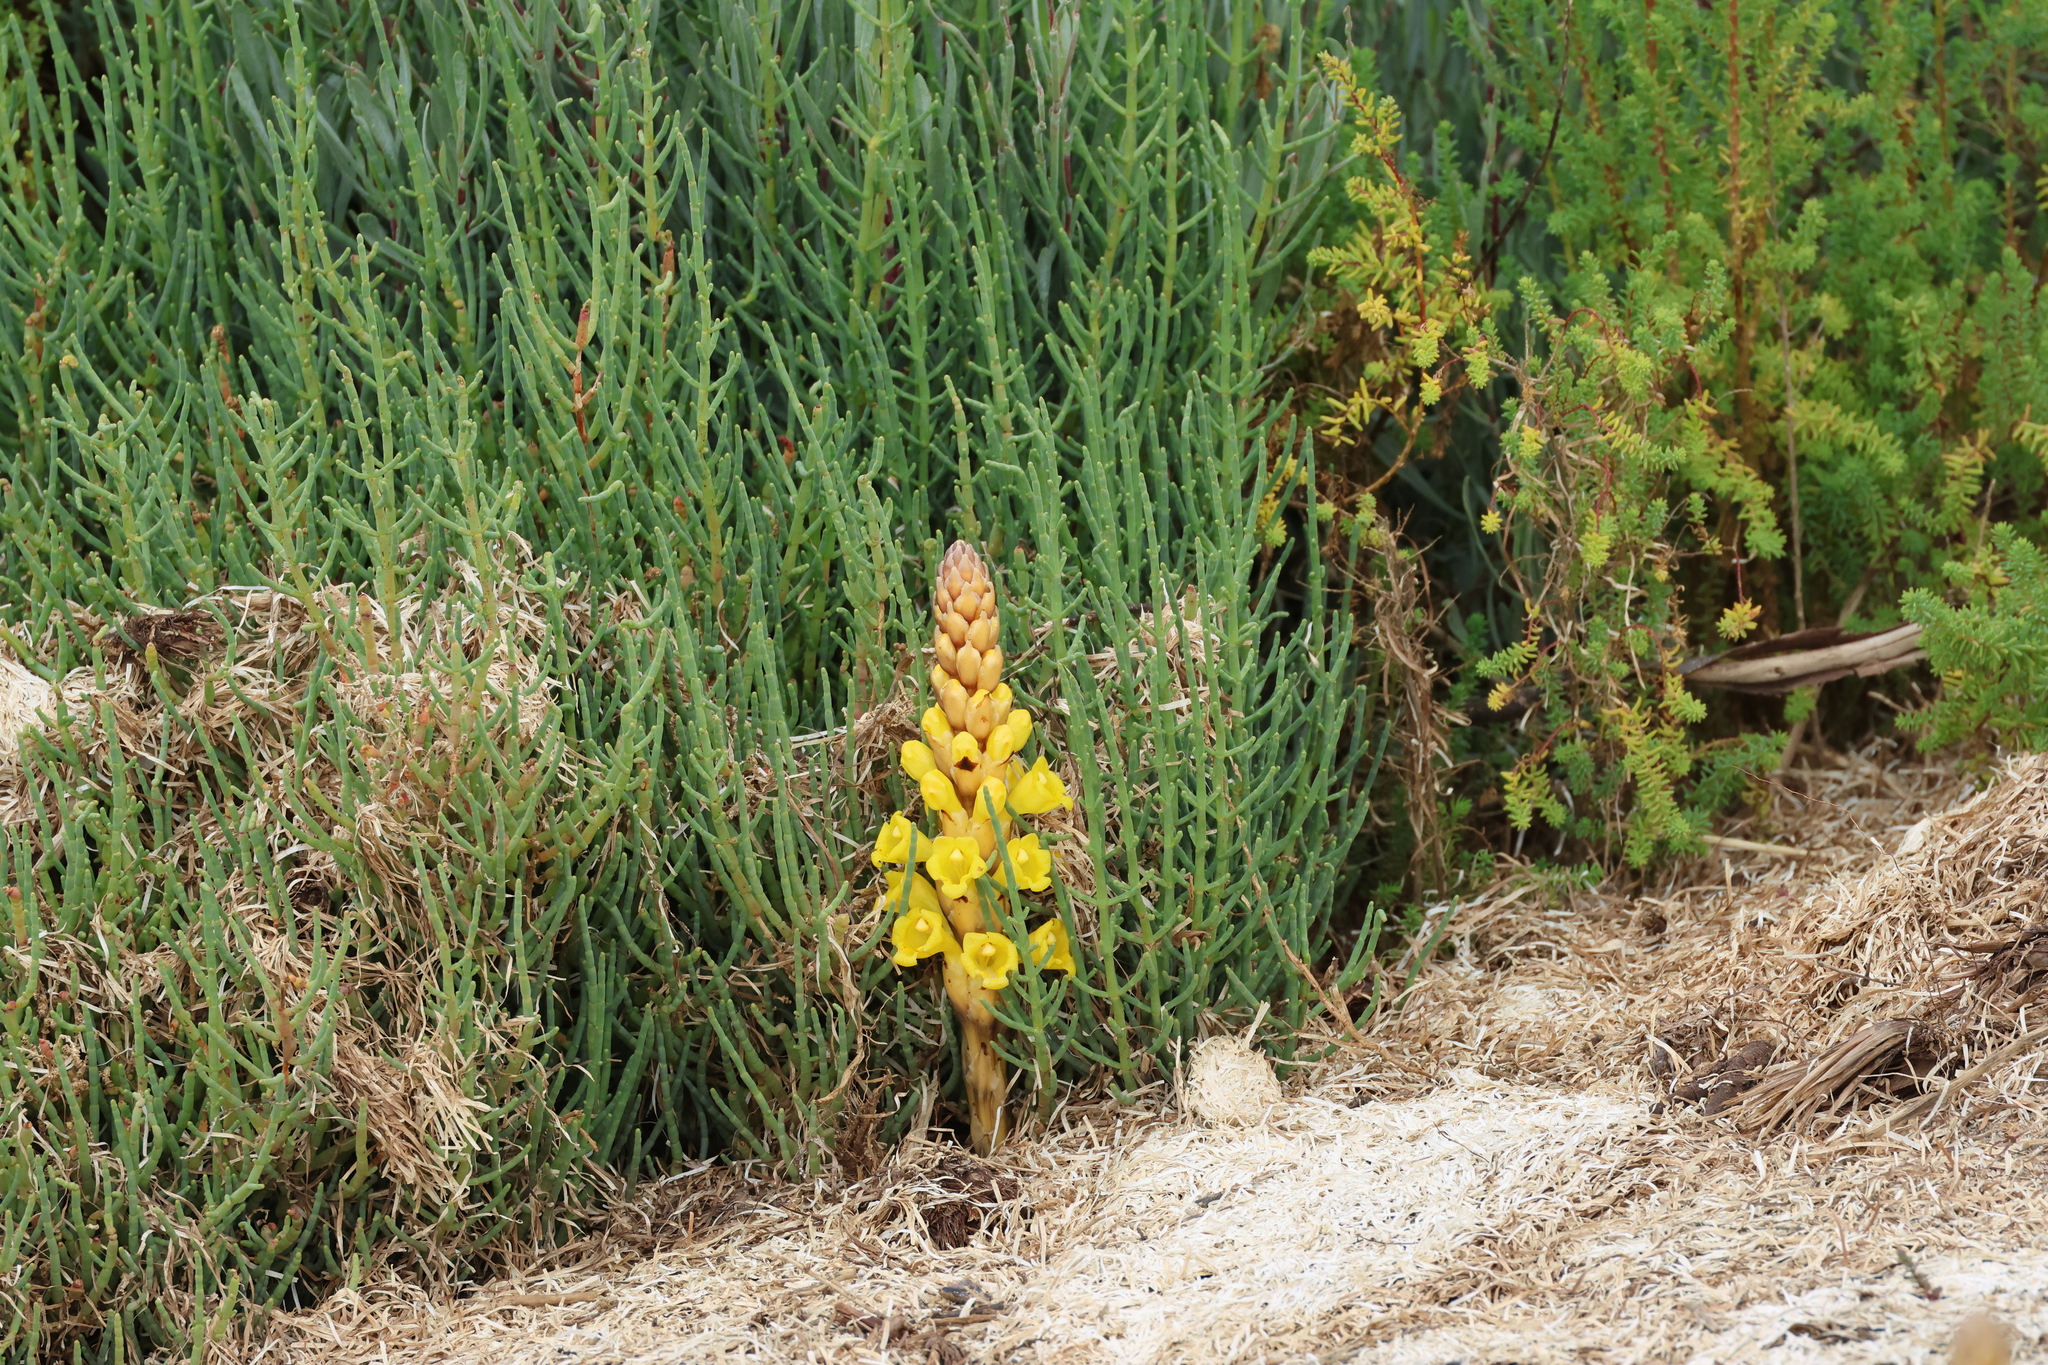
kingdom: Plantae
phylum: Tracheophyta
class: Magnoliopsida
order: Lamiales
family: Orobanchaceae
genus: Cistanche
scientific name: Cistanche phelypaea
